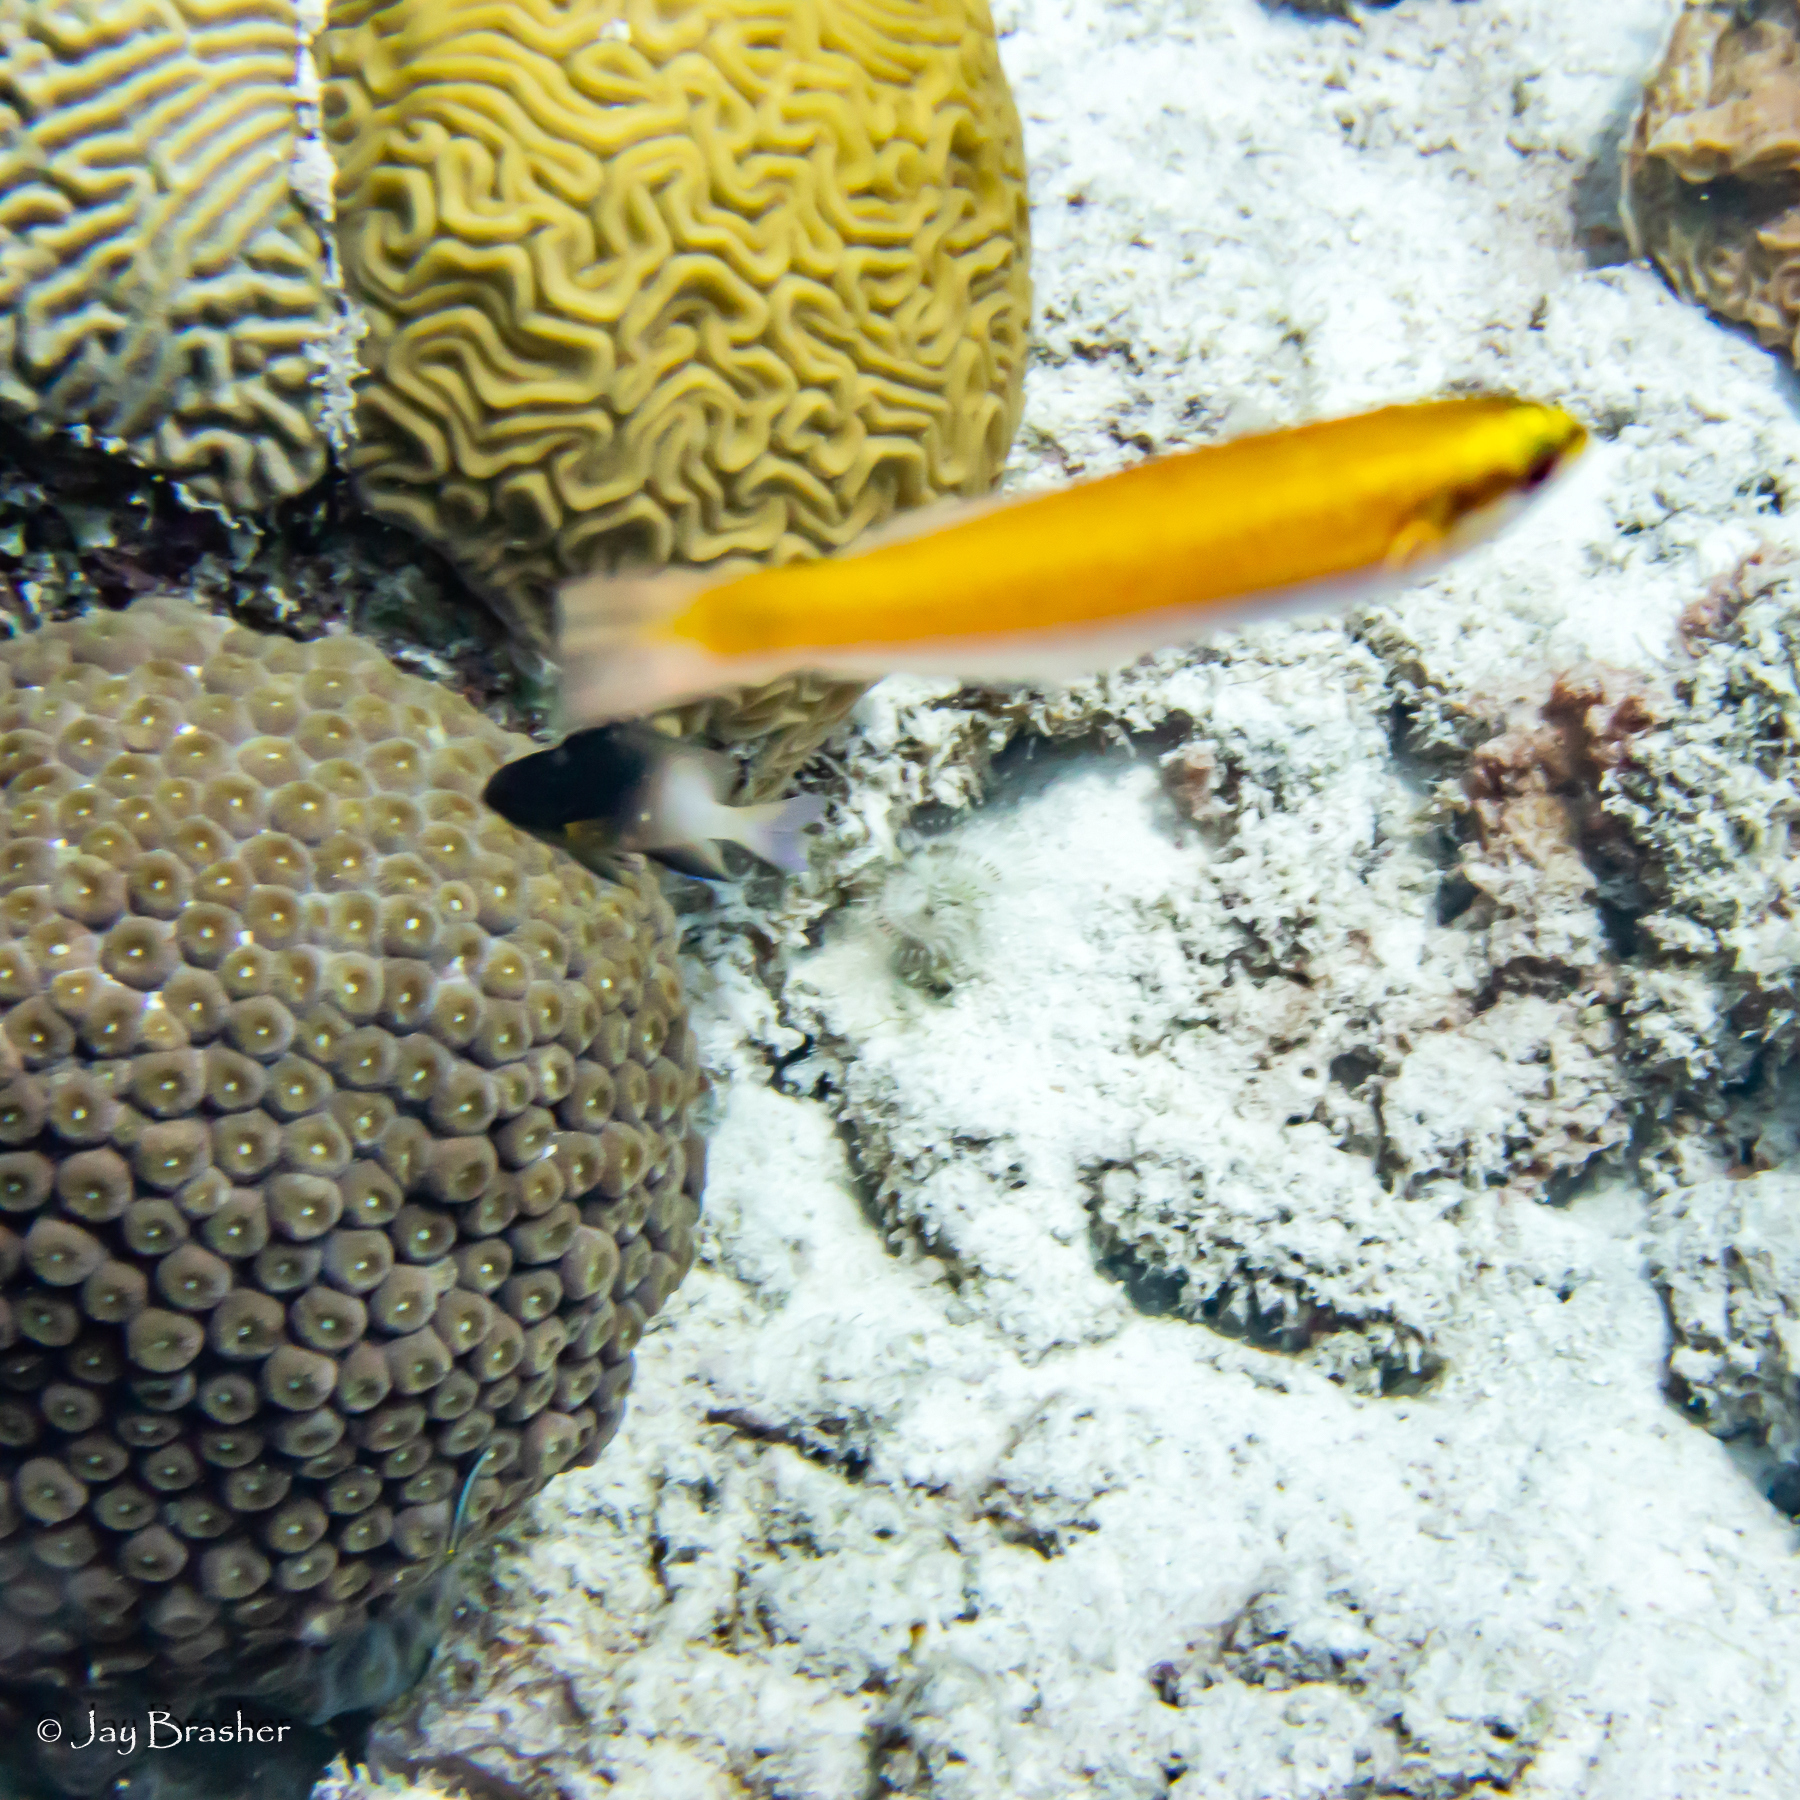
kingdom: Animalia
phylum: Chordata
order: Perciformes
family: Labridae
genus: Halichoeres
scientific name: Halichoeres pictus
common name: Rainbow wrasse
